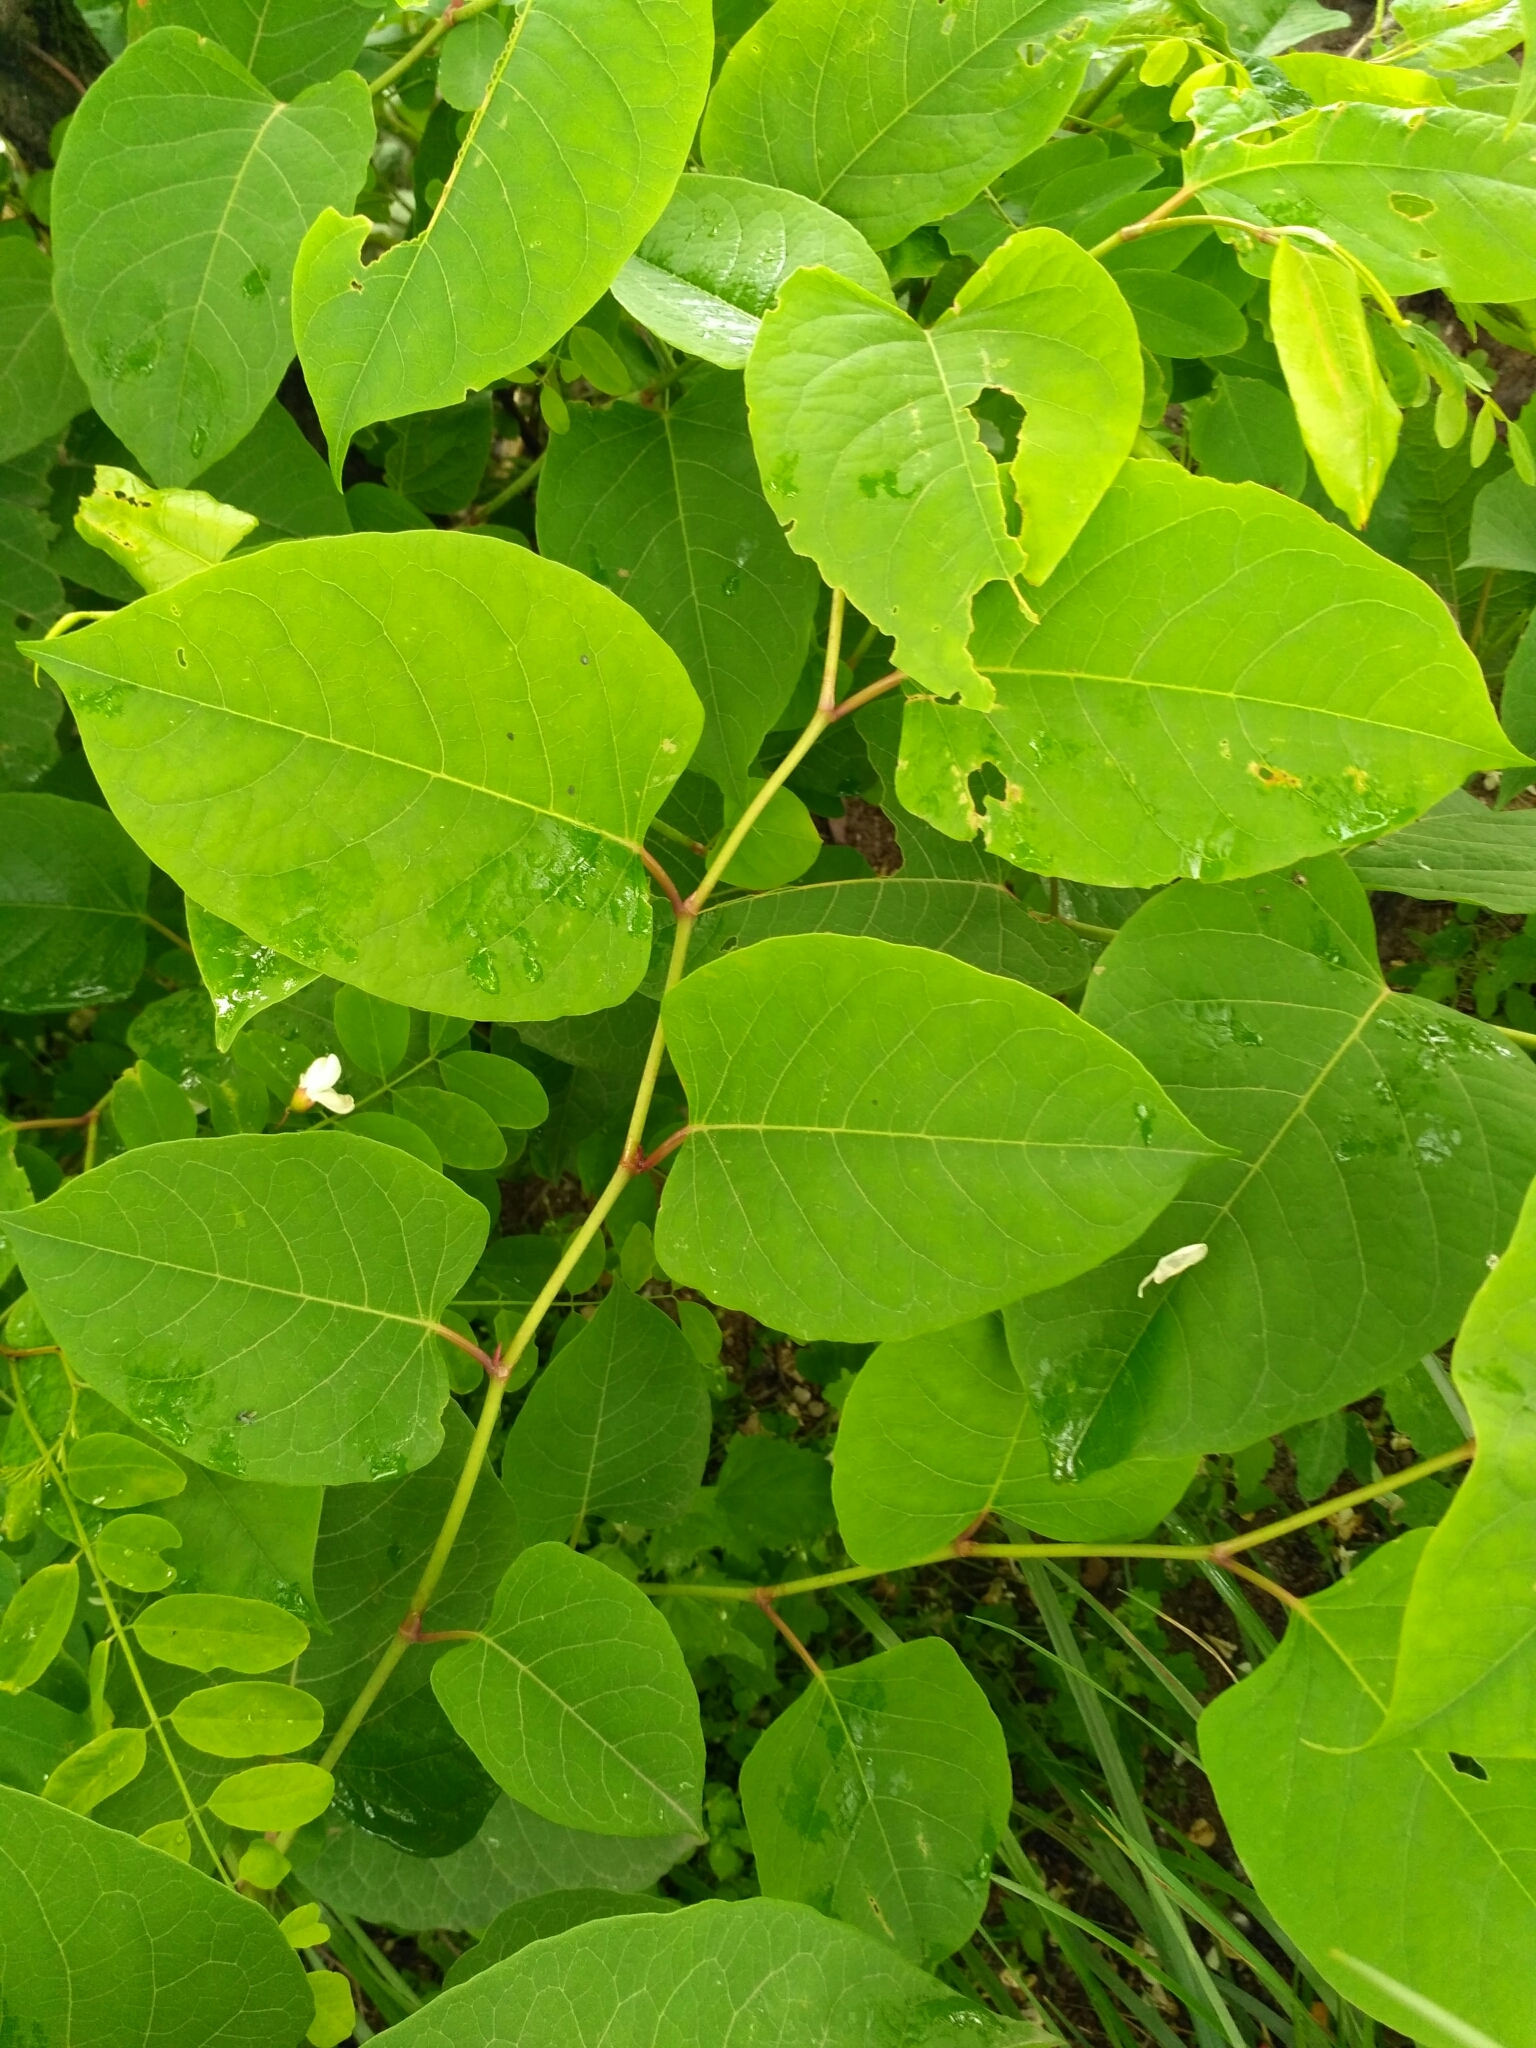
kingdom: Plantae
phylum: Tracheophyta
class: Magnoliopsida
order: Caryophyllales
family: Polygonaceae
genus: Reynoutria
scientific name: Reynoutria bohemica
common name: Bohemian knotweed
